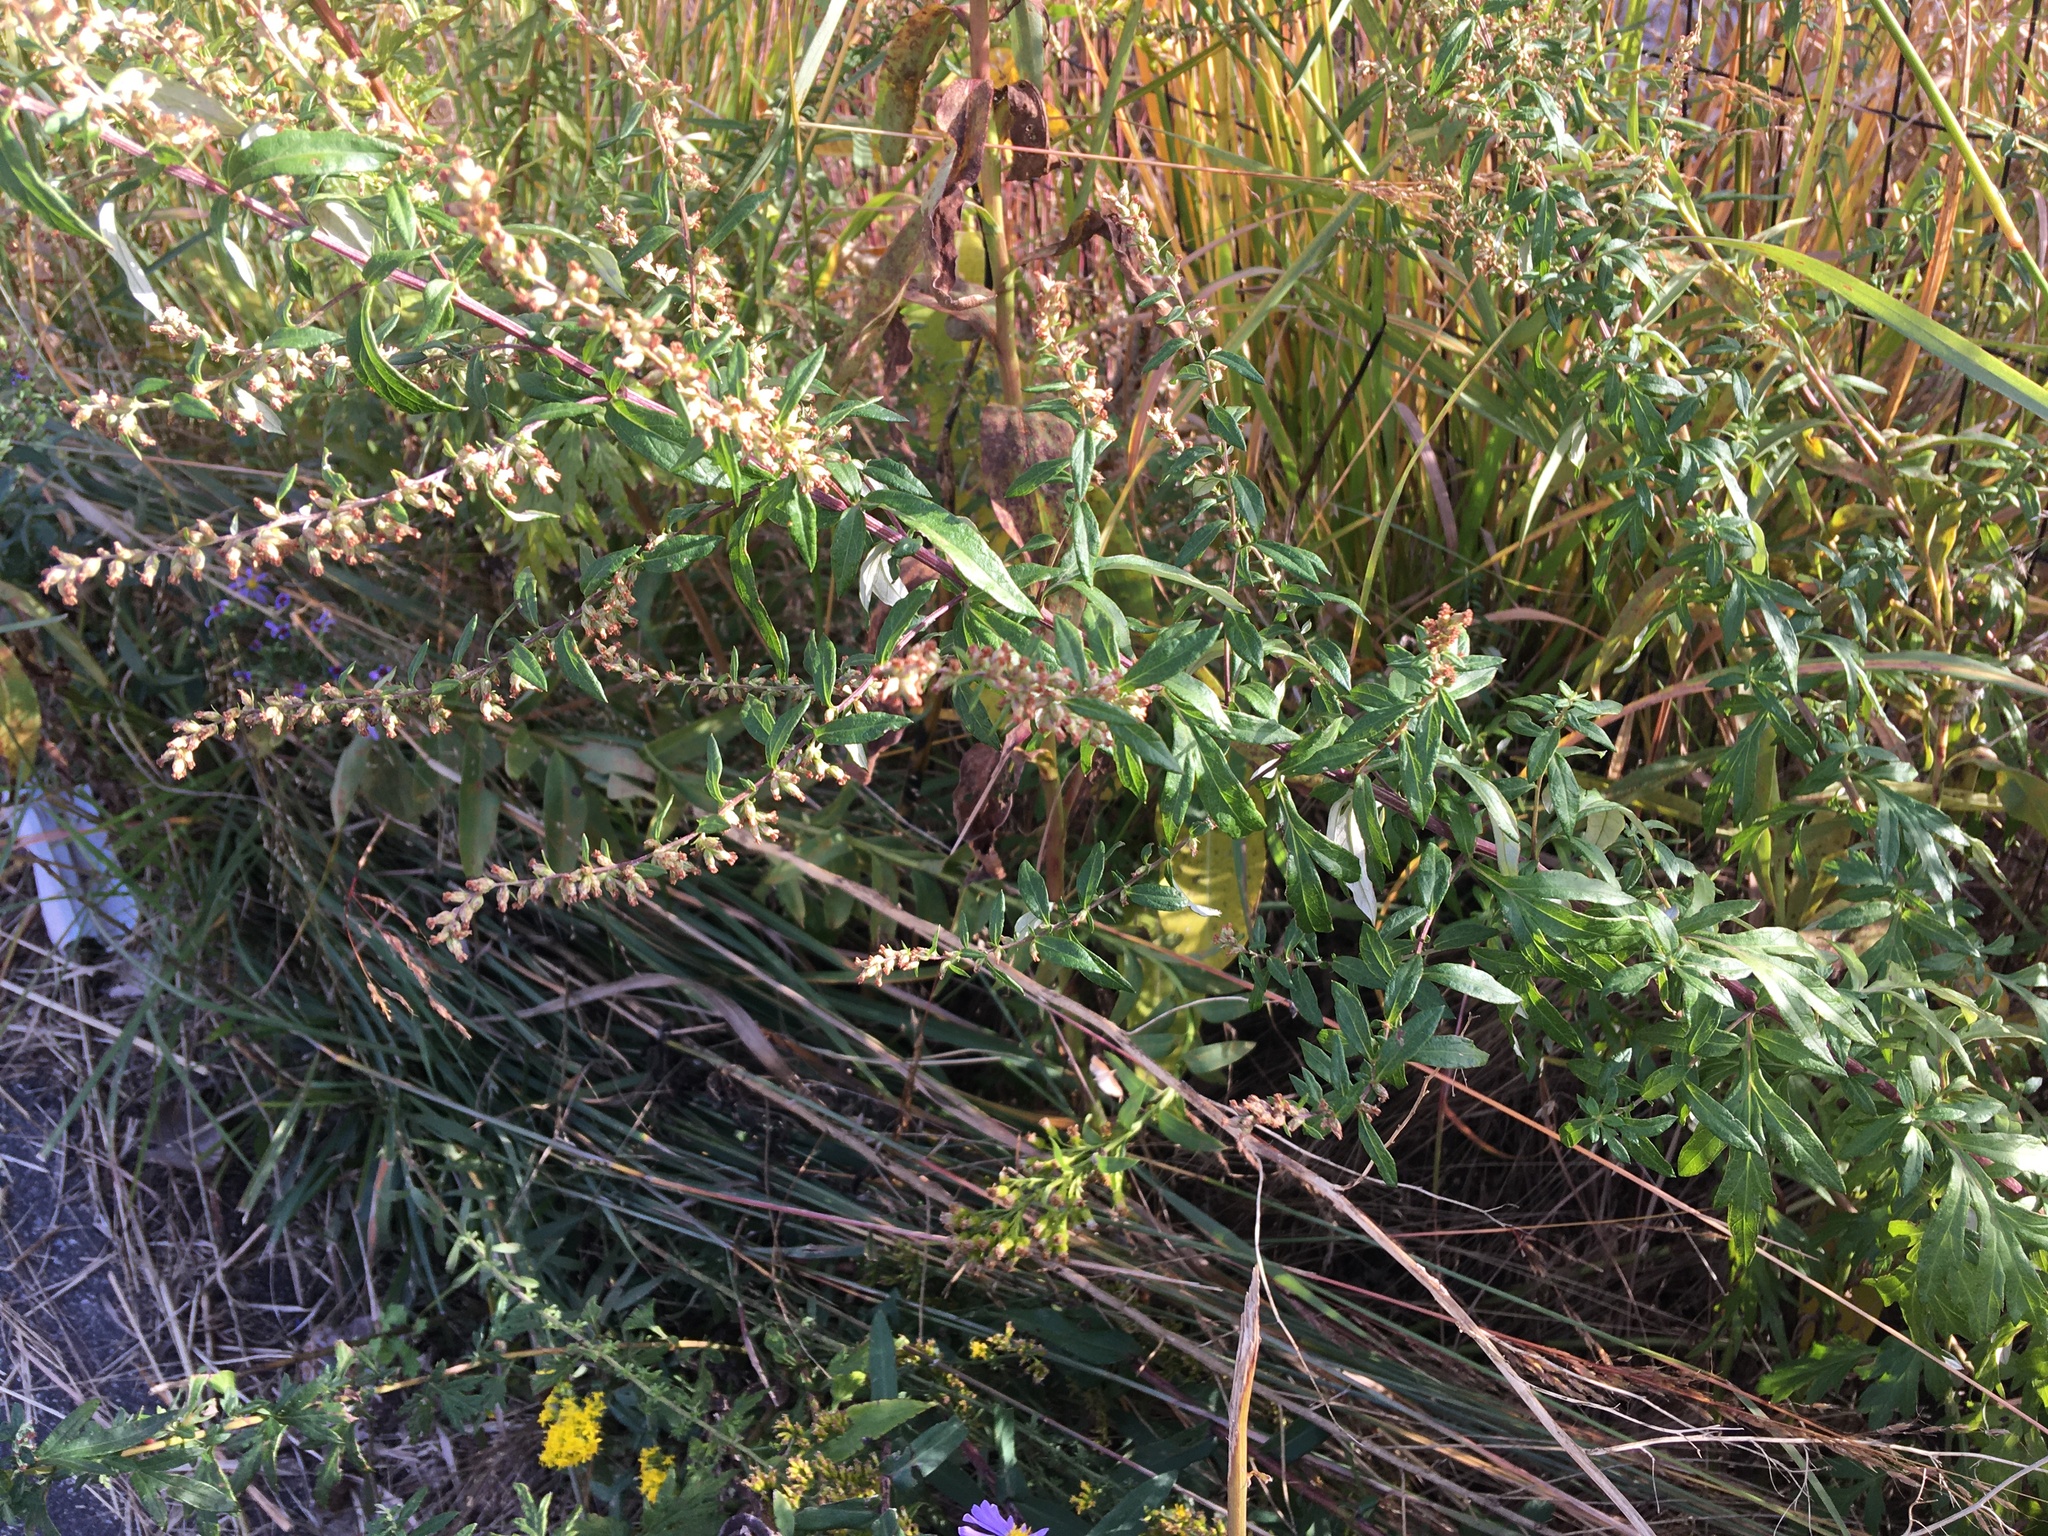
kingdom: Plantae
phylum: Tracheophyta
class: Magnoliopsida
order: Asterales
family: Asteraceae
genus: Artemisia
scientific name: Artemisia vulgaris
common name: Mugwort
